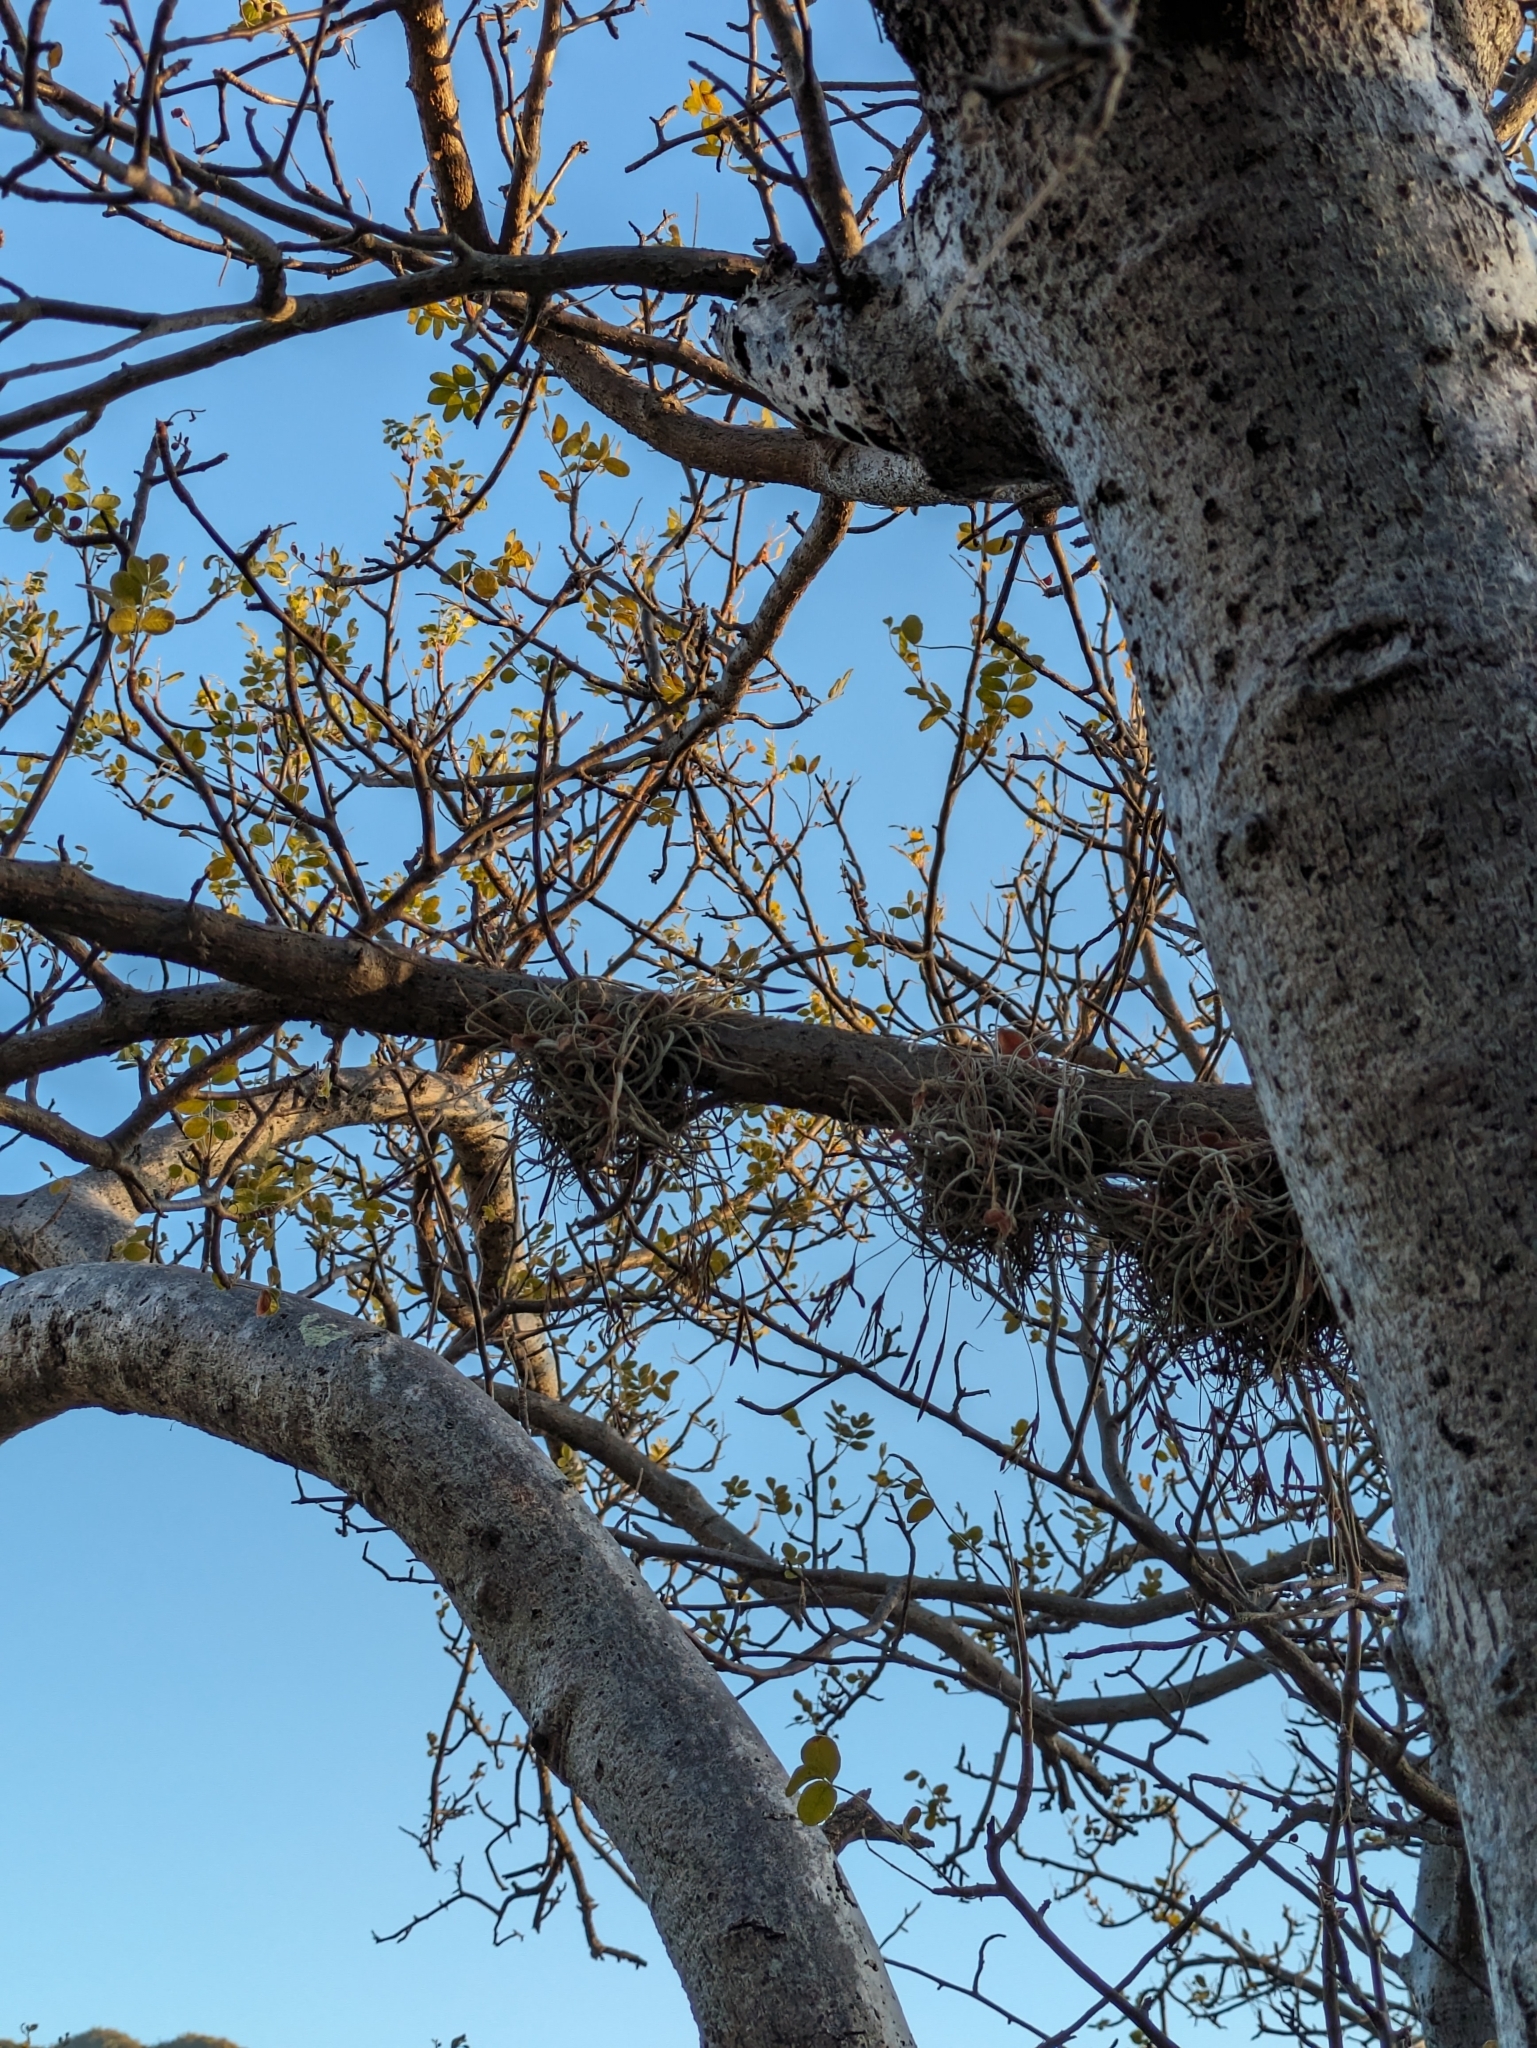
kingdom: Plantae
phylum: Tracheophyta
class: Liliopsida
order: Poales
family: Bromeliaceae
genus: Tillandsia
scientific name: Tillandsia recurvata
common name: Small ballmoss
